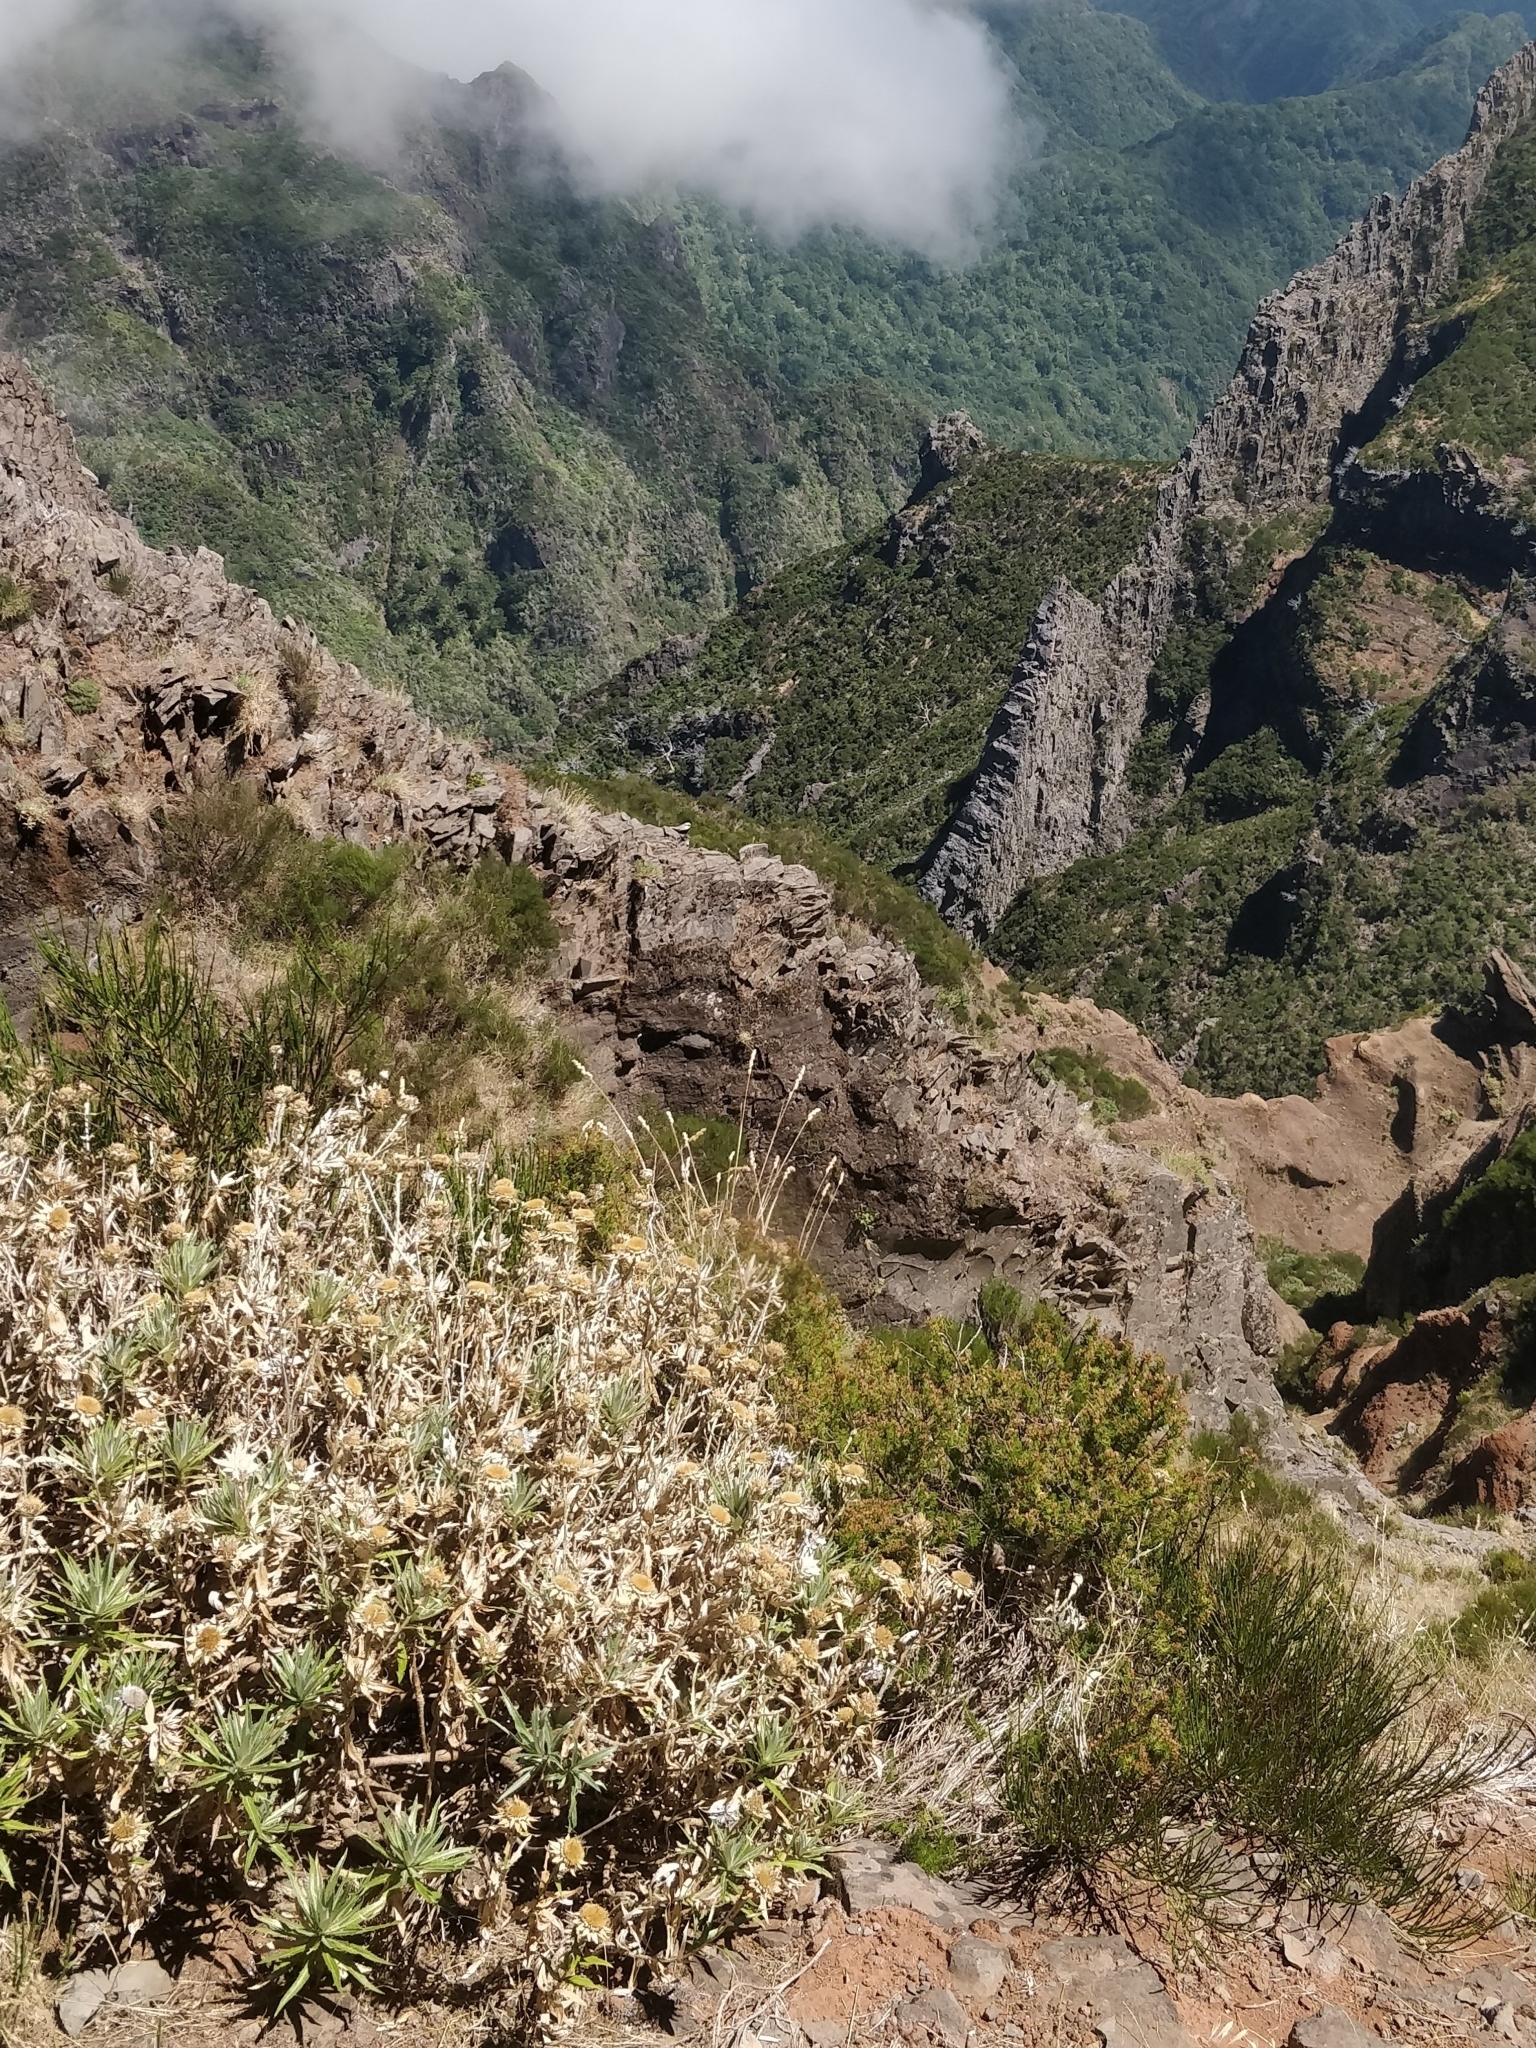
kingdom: Plantae
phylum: Tracheophyta
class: Magnoliopsida
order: Asterales
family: Asteraceae
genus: Carlina
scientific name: Carlina salicifolia
